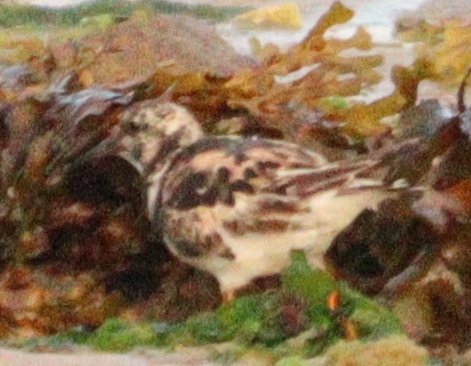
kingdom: Animalia
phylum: Chordata
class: Aves
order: Charadriiformes
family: Scolopacidae
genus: Arenaria
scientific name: Arenaria interpres
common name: Ruddy turnstone
